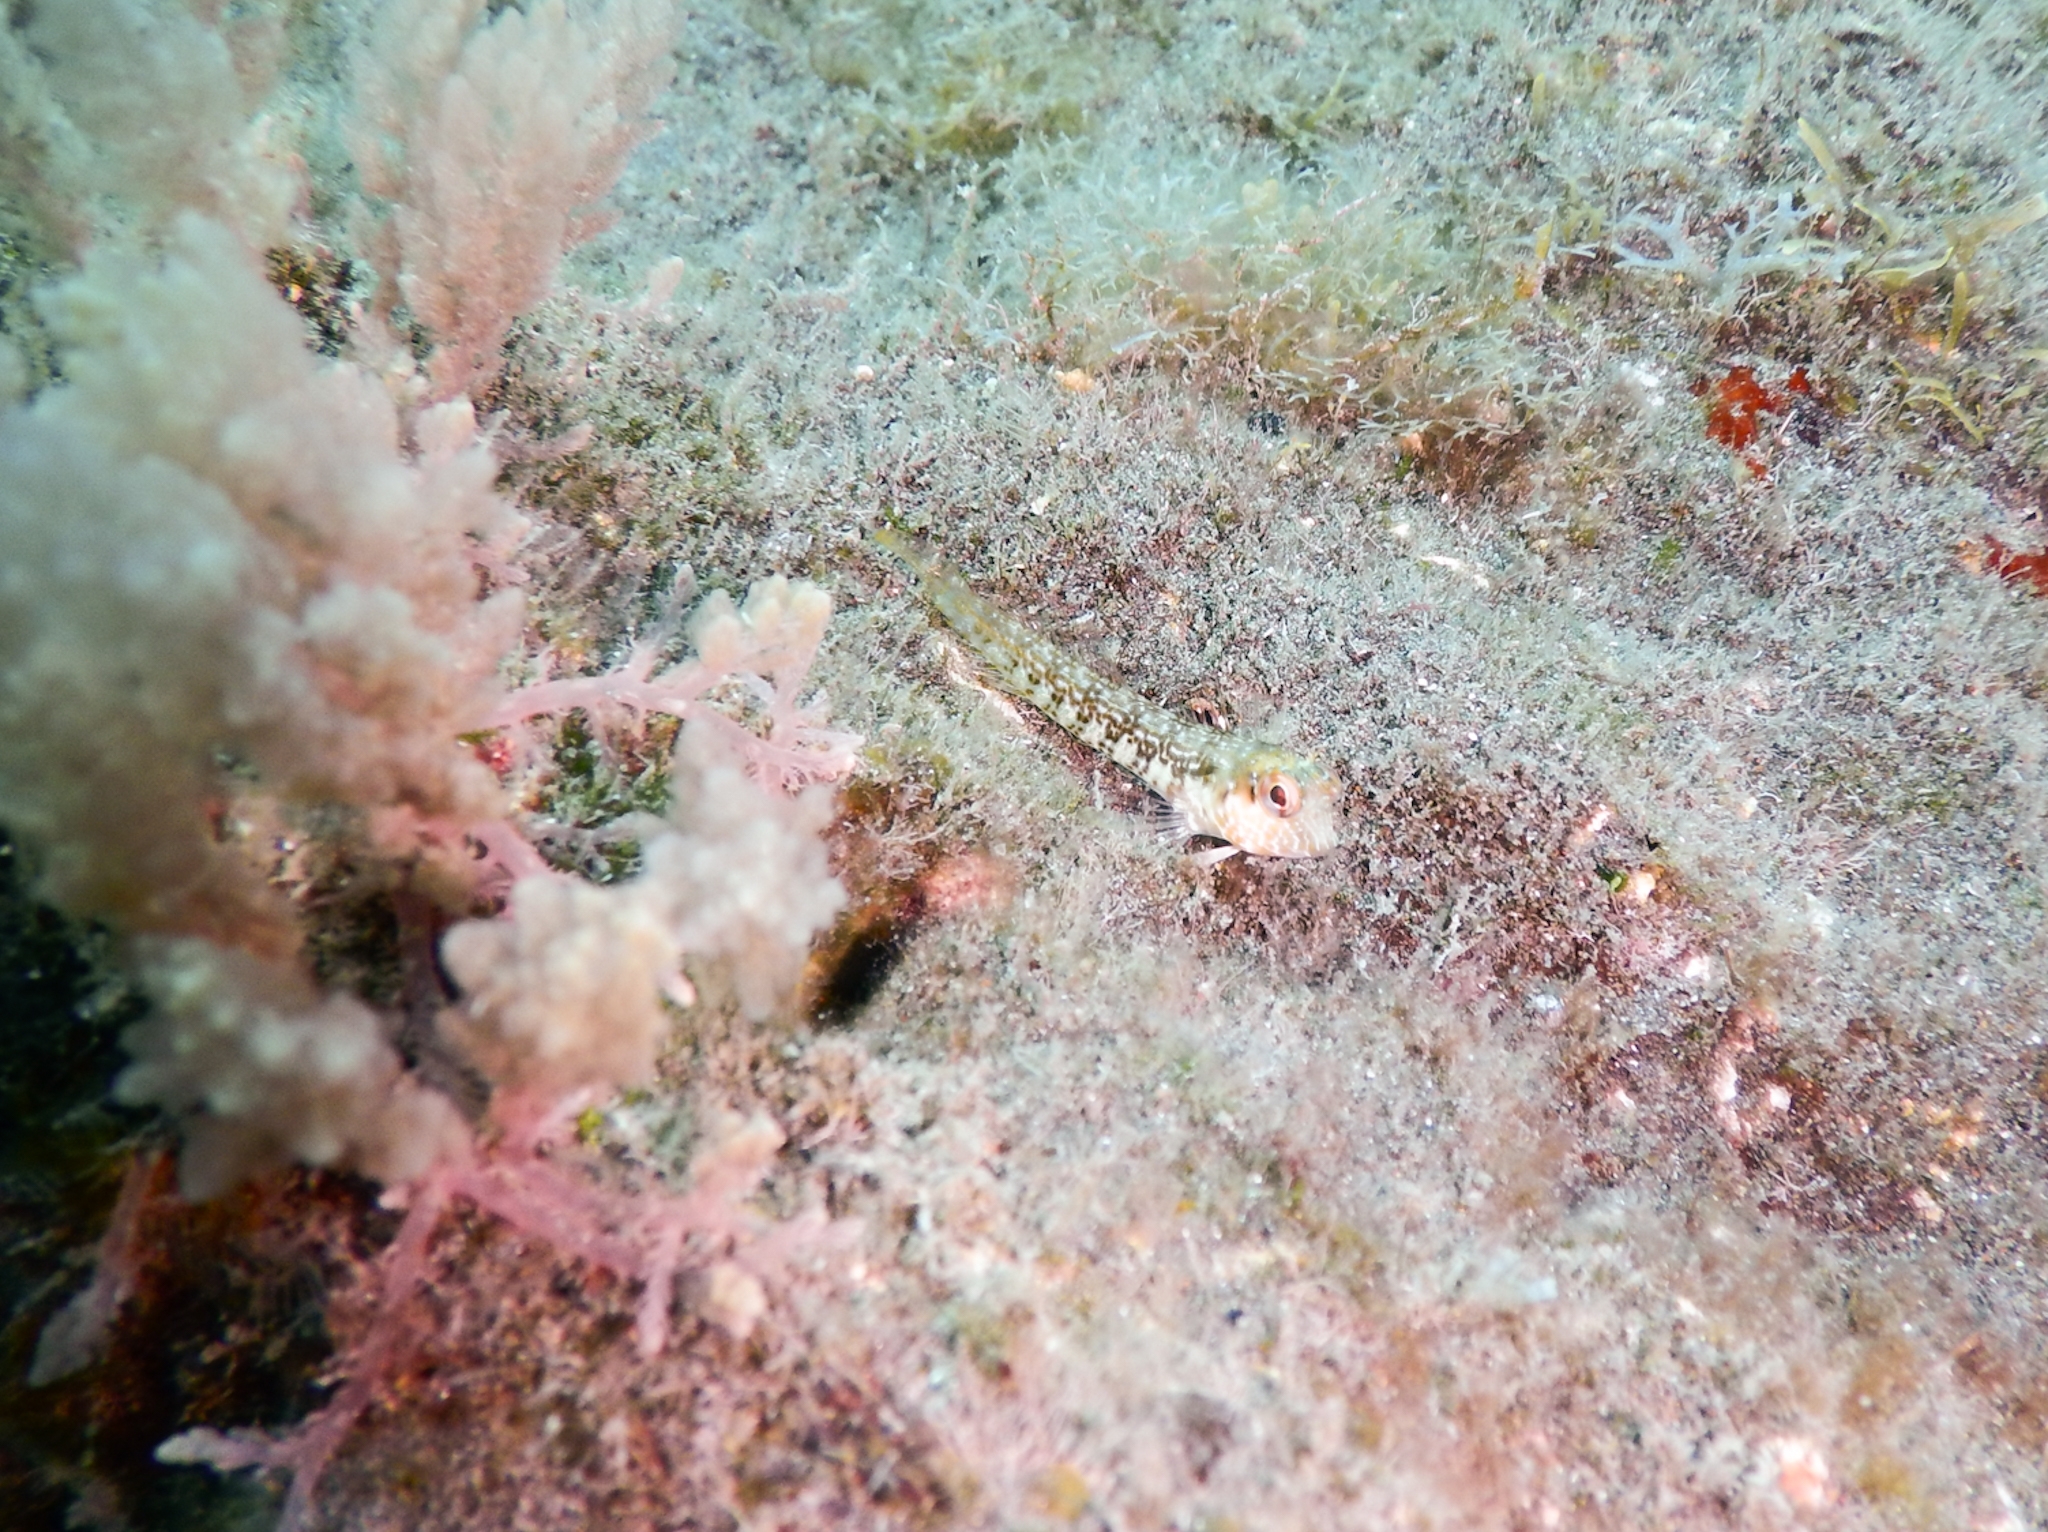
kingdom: Animalia
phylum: Chordata
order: Perciformes
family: Blenniidae
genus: Parablennius
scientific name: Parablennius goreensis
